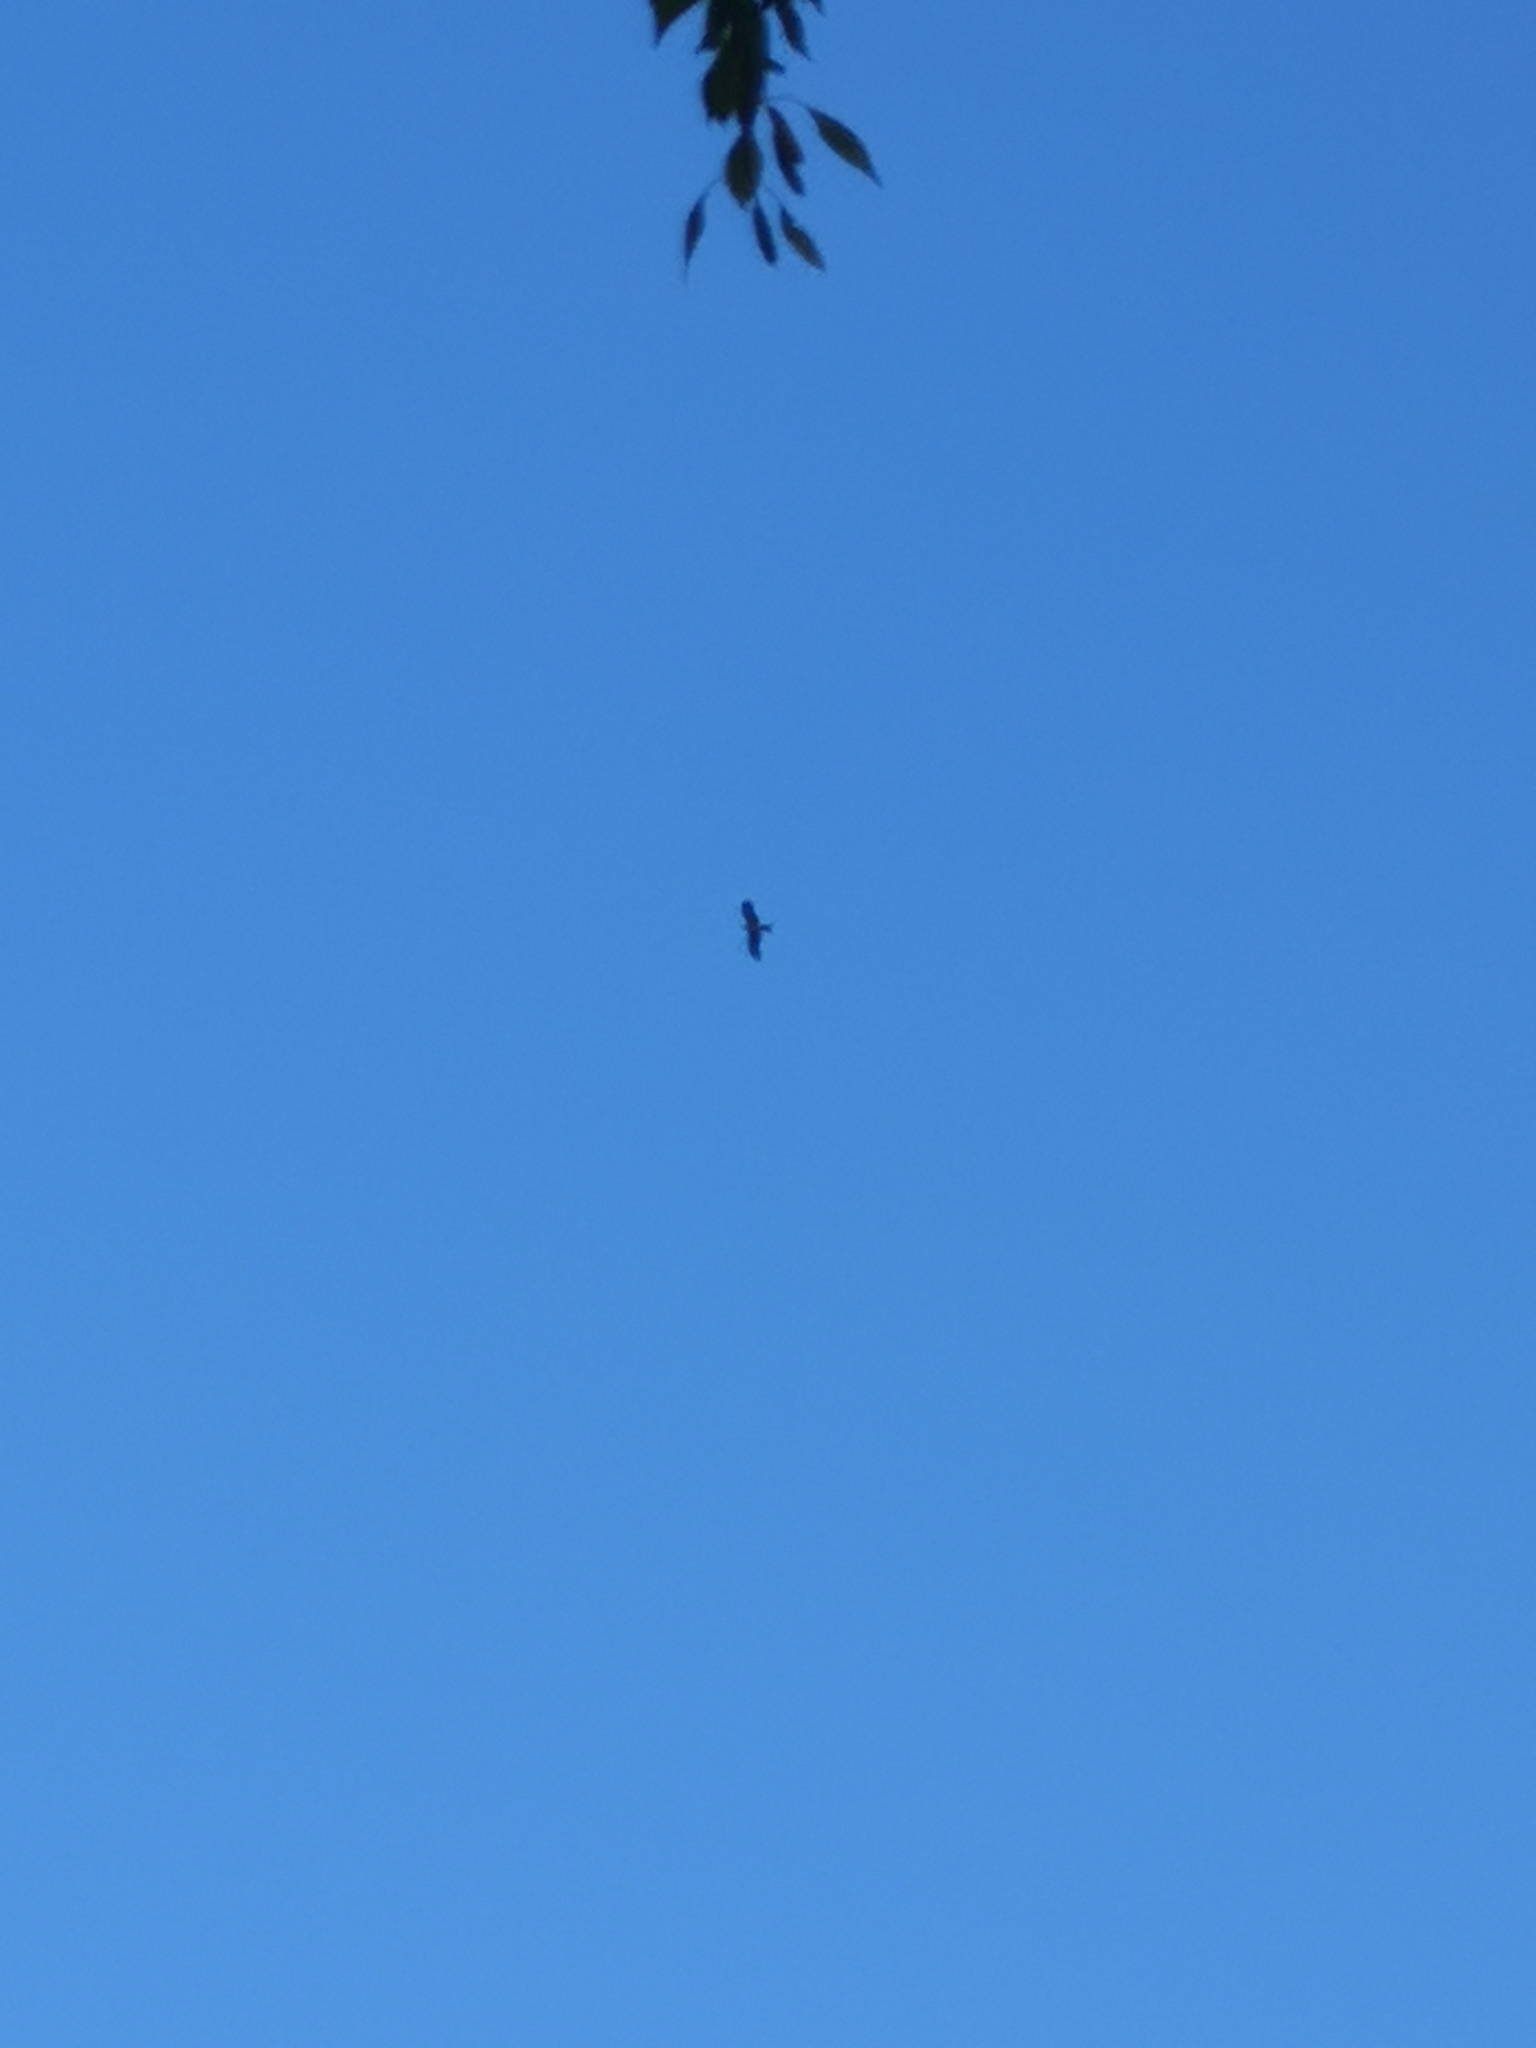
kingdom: Animalia
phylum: Chordata
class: Aves
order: Accipitriformes
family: Accipitridae
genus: Milvus
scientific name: Milvus milvus
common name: Red kite
